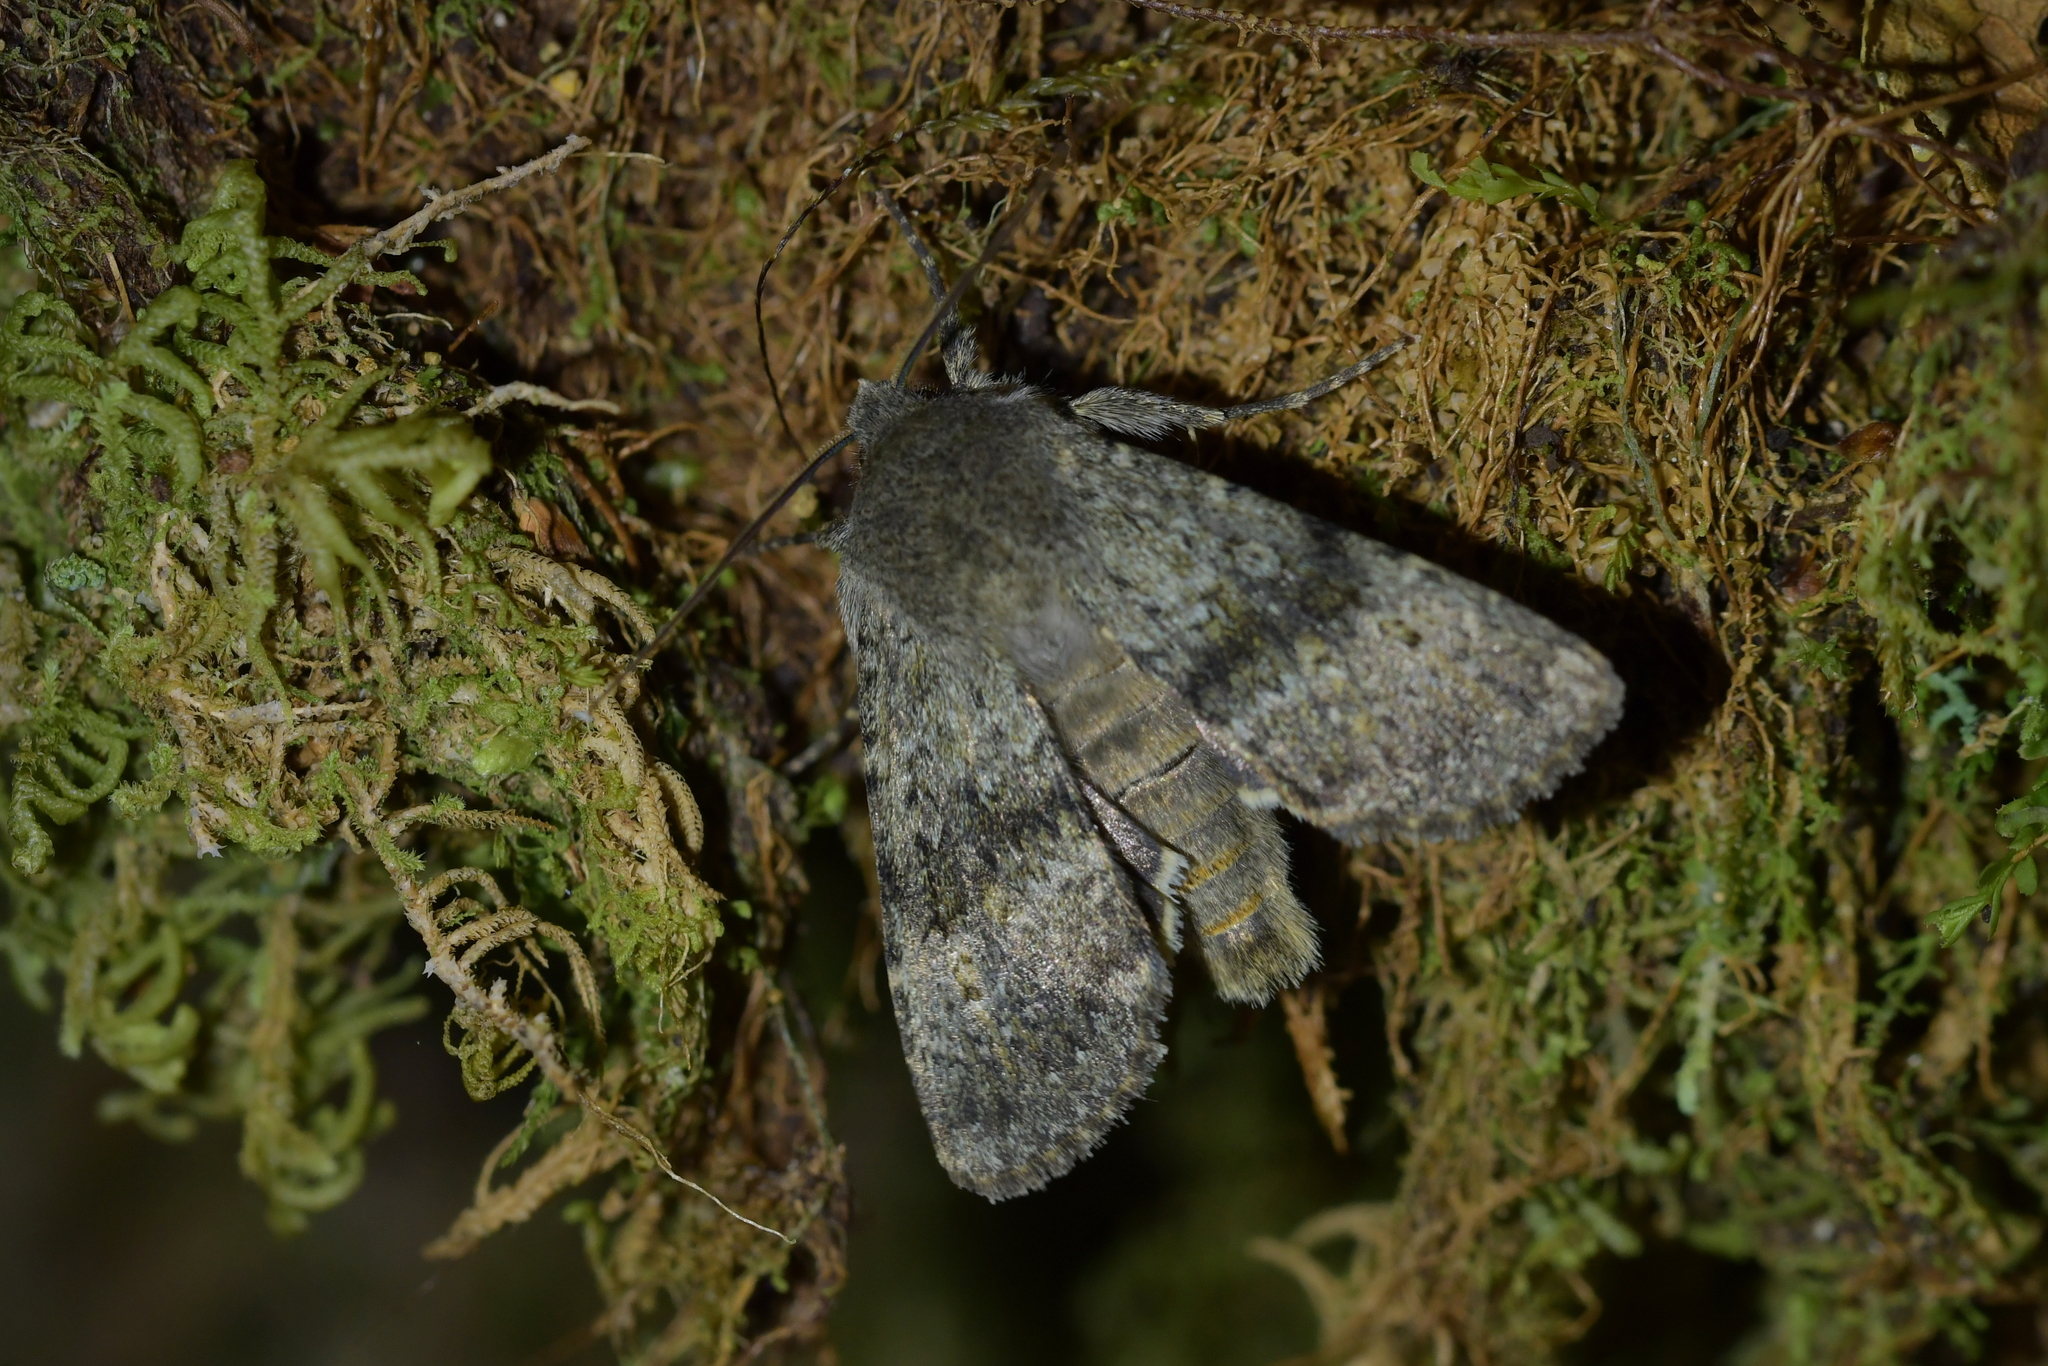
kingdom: Animalia
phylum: Arthropoda
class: Insecta
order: Lepidoptera
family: Noctuidae
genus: Ichneutica
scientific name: Ichneutica moderata
